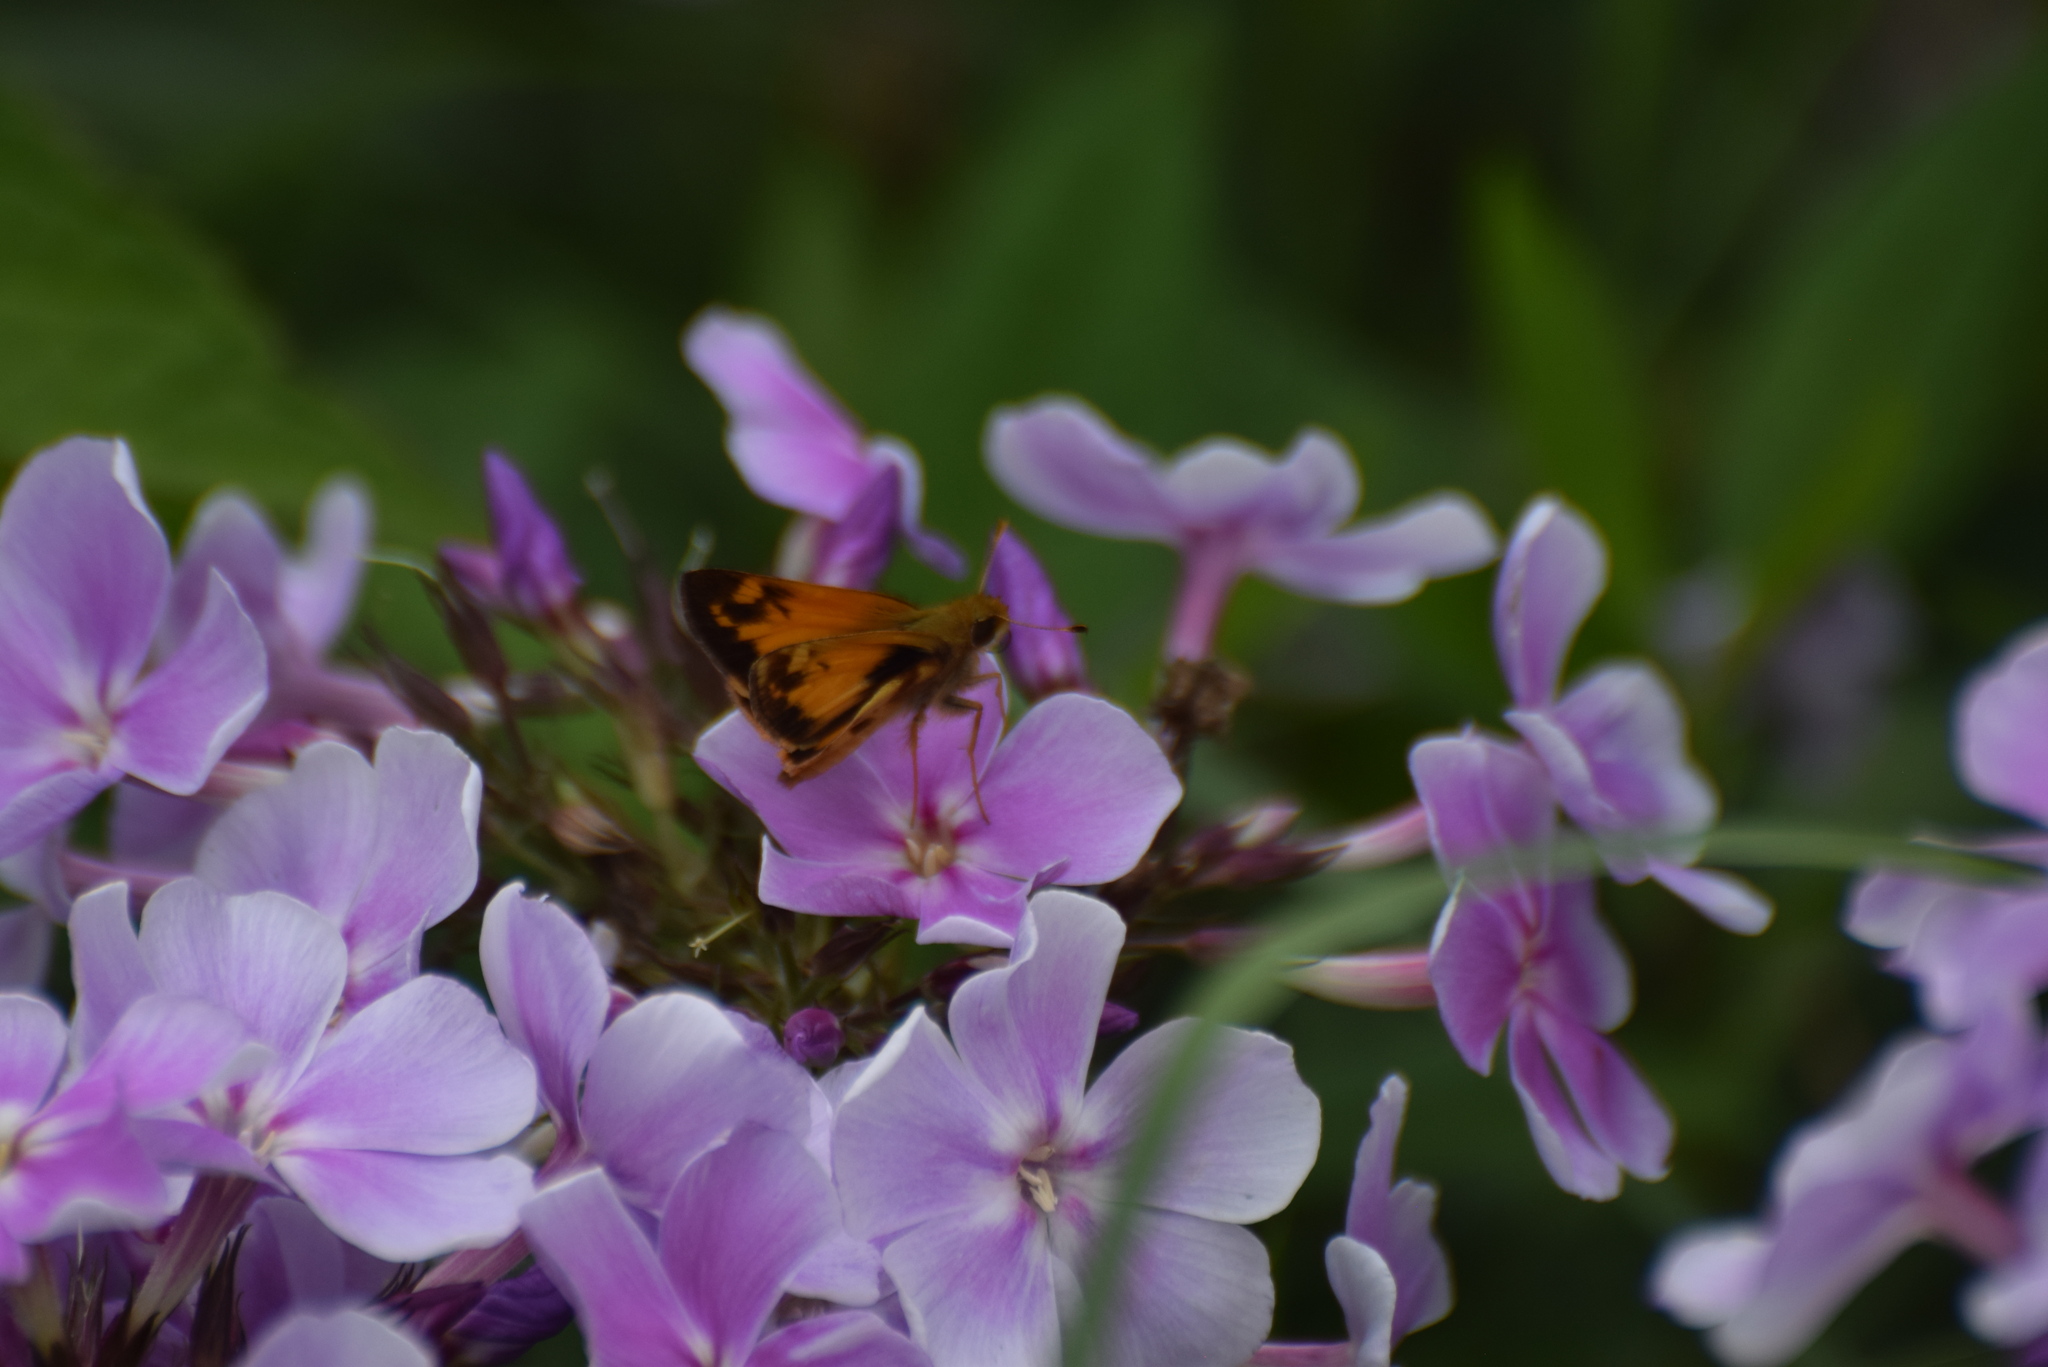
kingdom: Animalia
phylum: Arthropoda
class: Insecta
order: Lepidoptera
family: Hesperiidae
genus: Lon
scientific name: Lon zabulon
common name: Zabulon skipper
